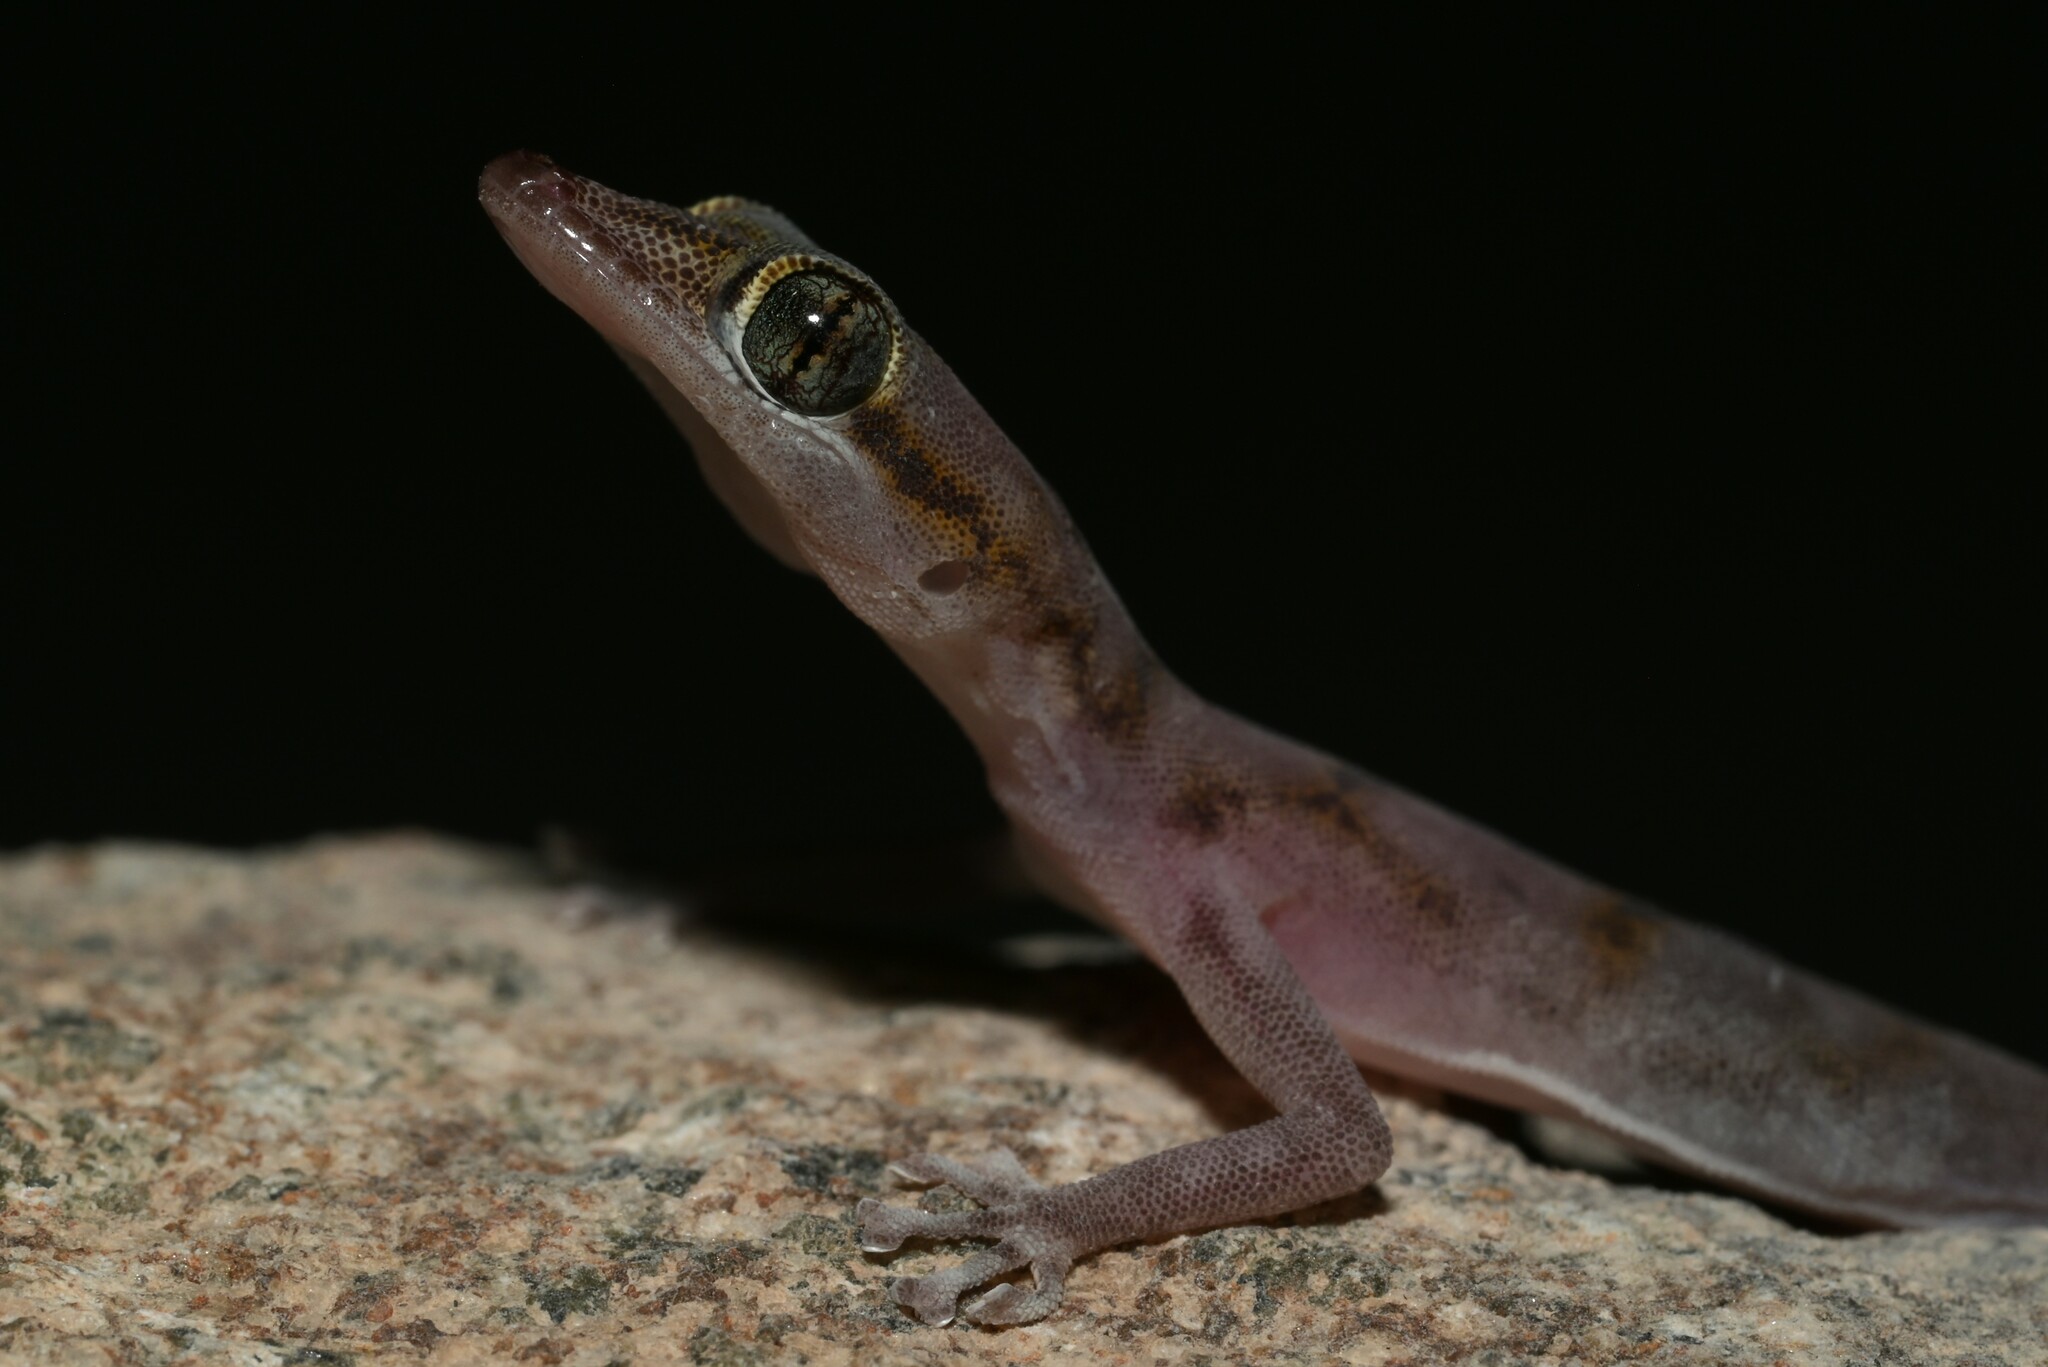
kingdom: Animalia
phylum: Chordata
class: Squamata
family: Phyllodactylidae
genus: Asaccus
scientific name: Asaccus gallagheri
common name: Gallagher's gecko
